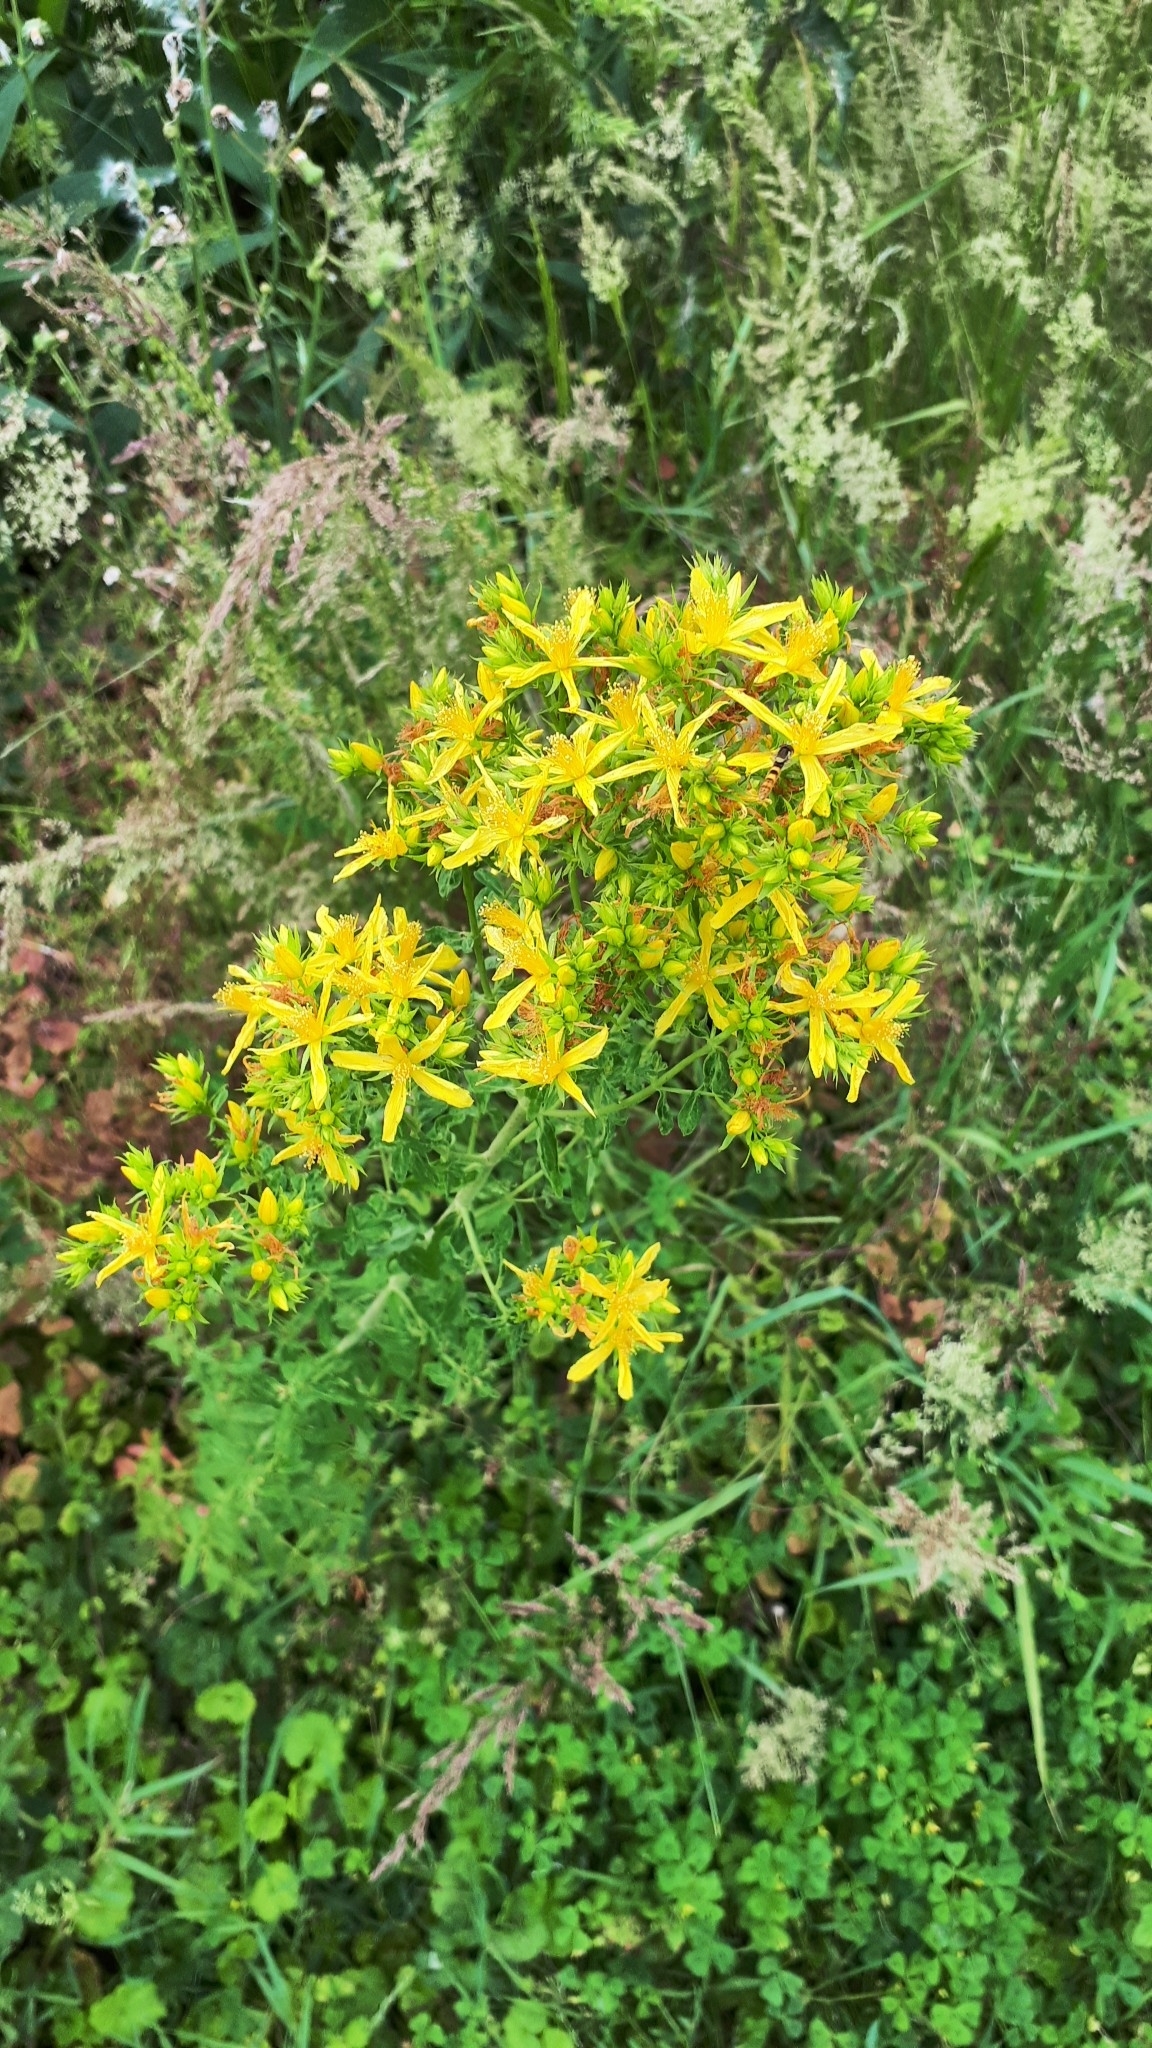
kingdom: Plantae
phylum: Tracheophyta
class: Magnoliopsida
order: Malpighiales
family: Hypericaceae
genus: Hypericum
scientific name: Hypericum perforatum
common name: Common st. johnswort
